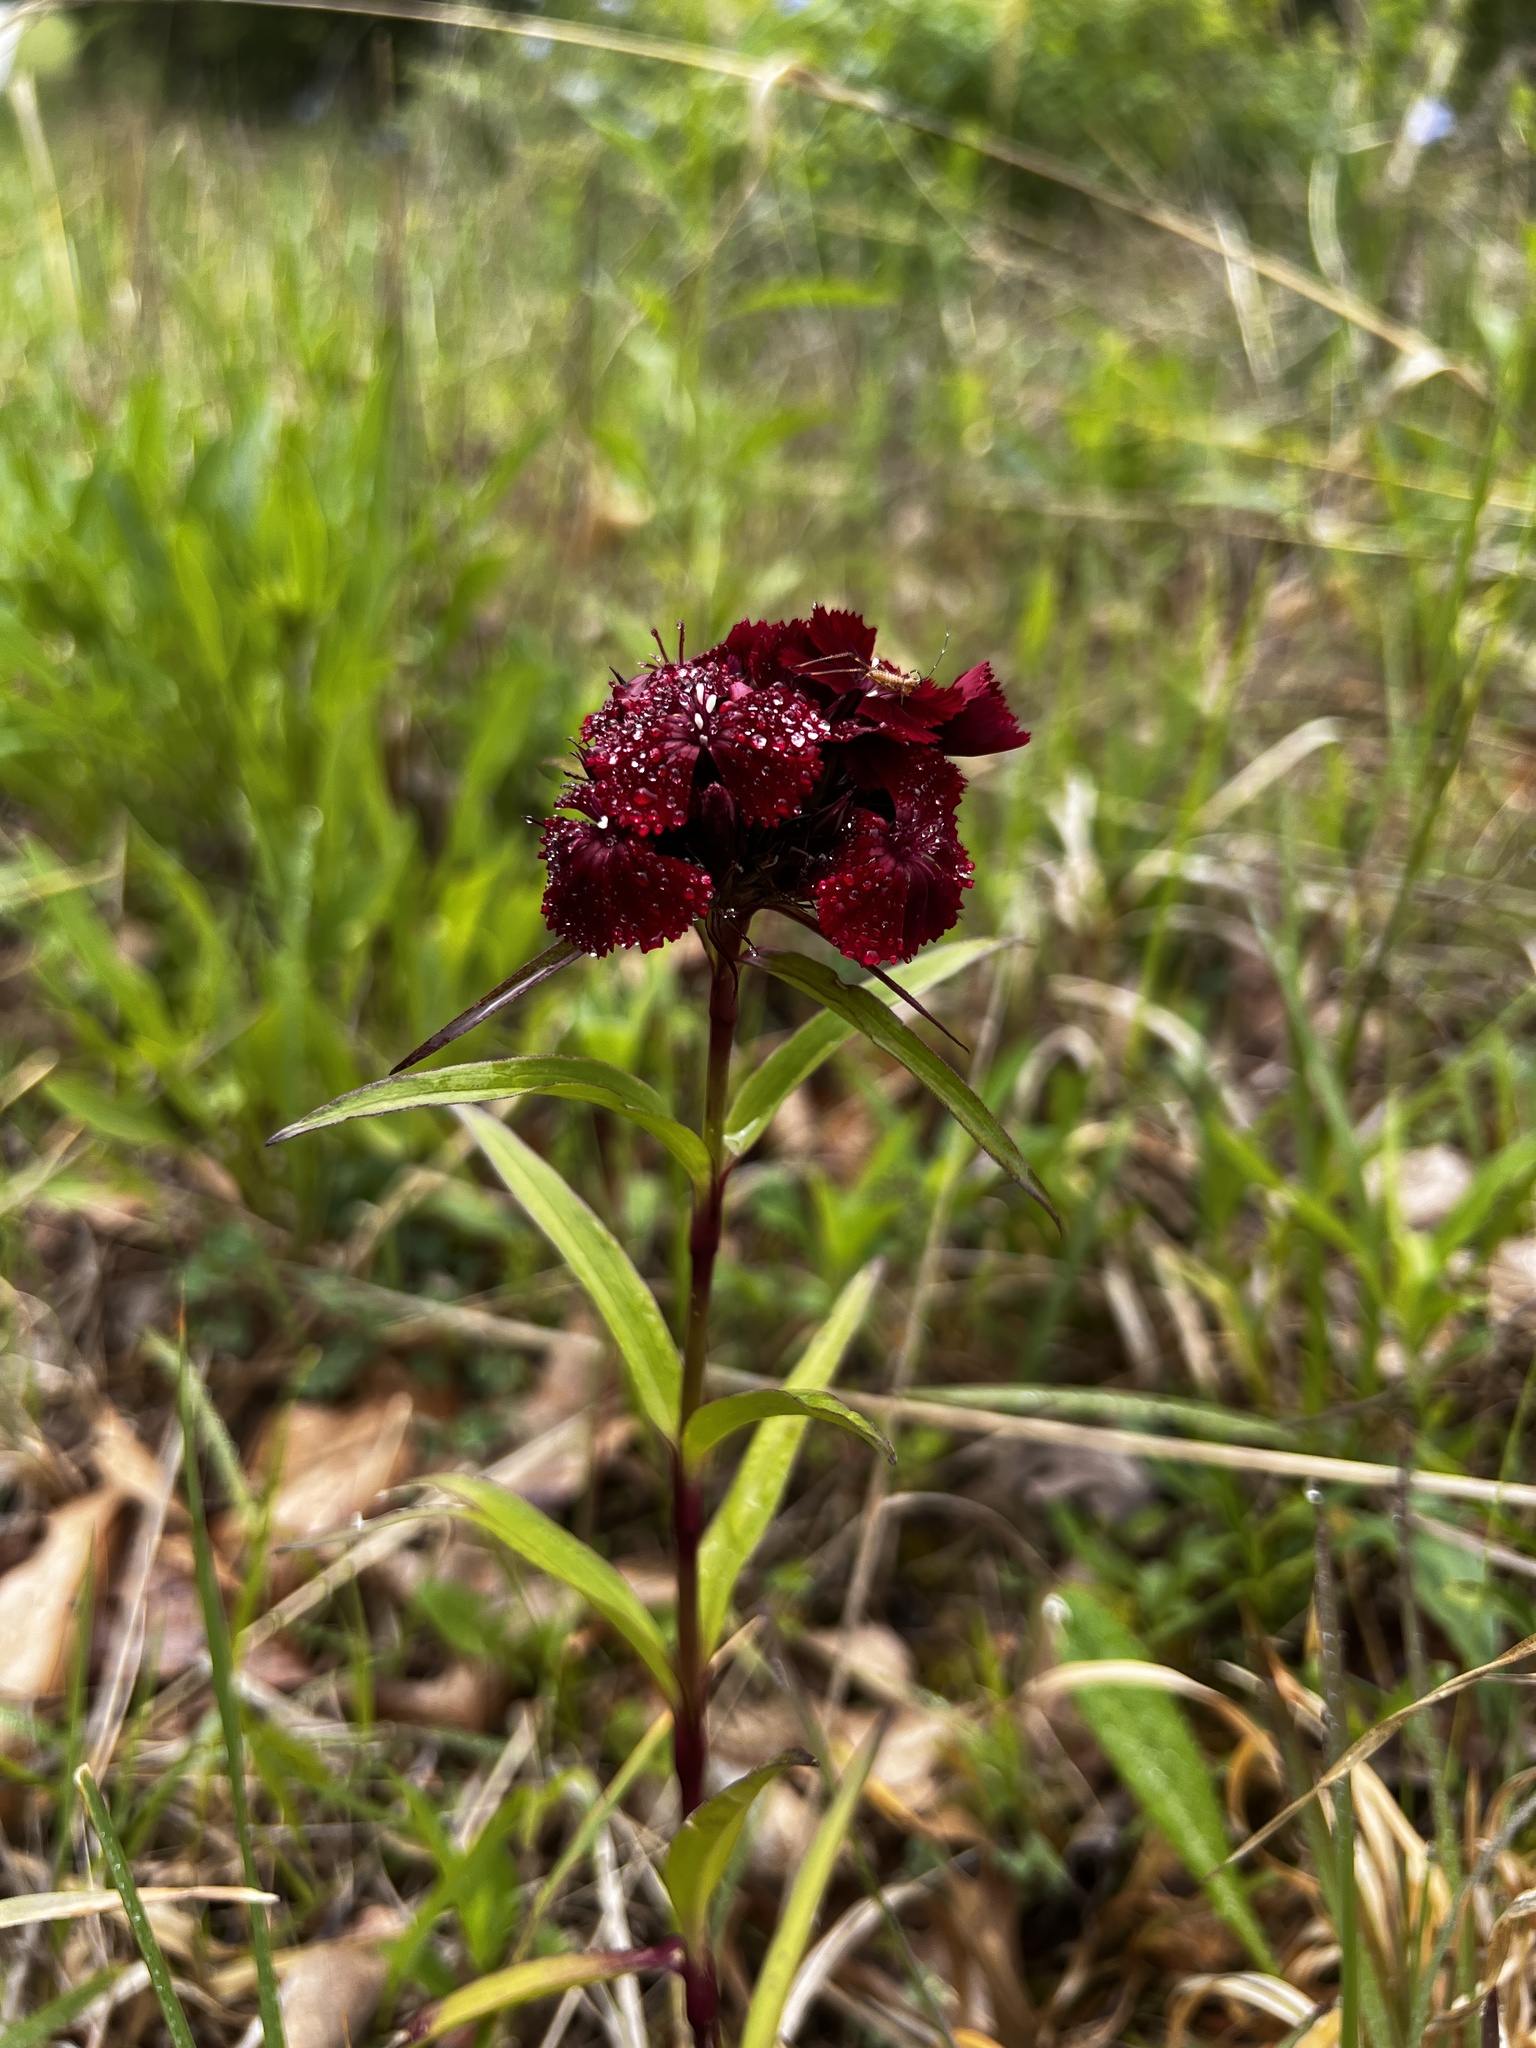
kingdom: Plantae
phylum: Tracheophyta
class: Magnoliopsida
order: Caryophyllales
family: Caryophyllaceae
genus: Dianthus
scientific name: Dianthus barbatus
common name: Sweet-william
